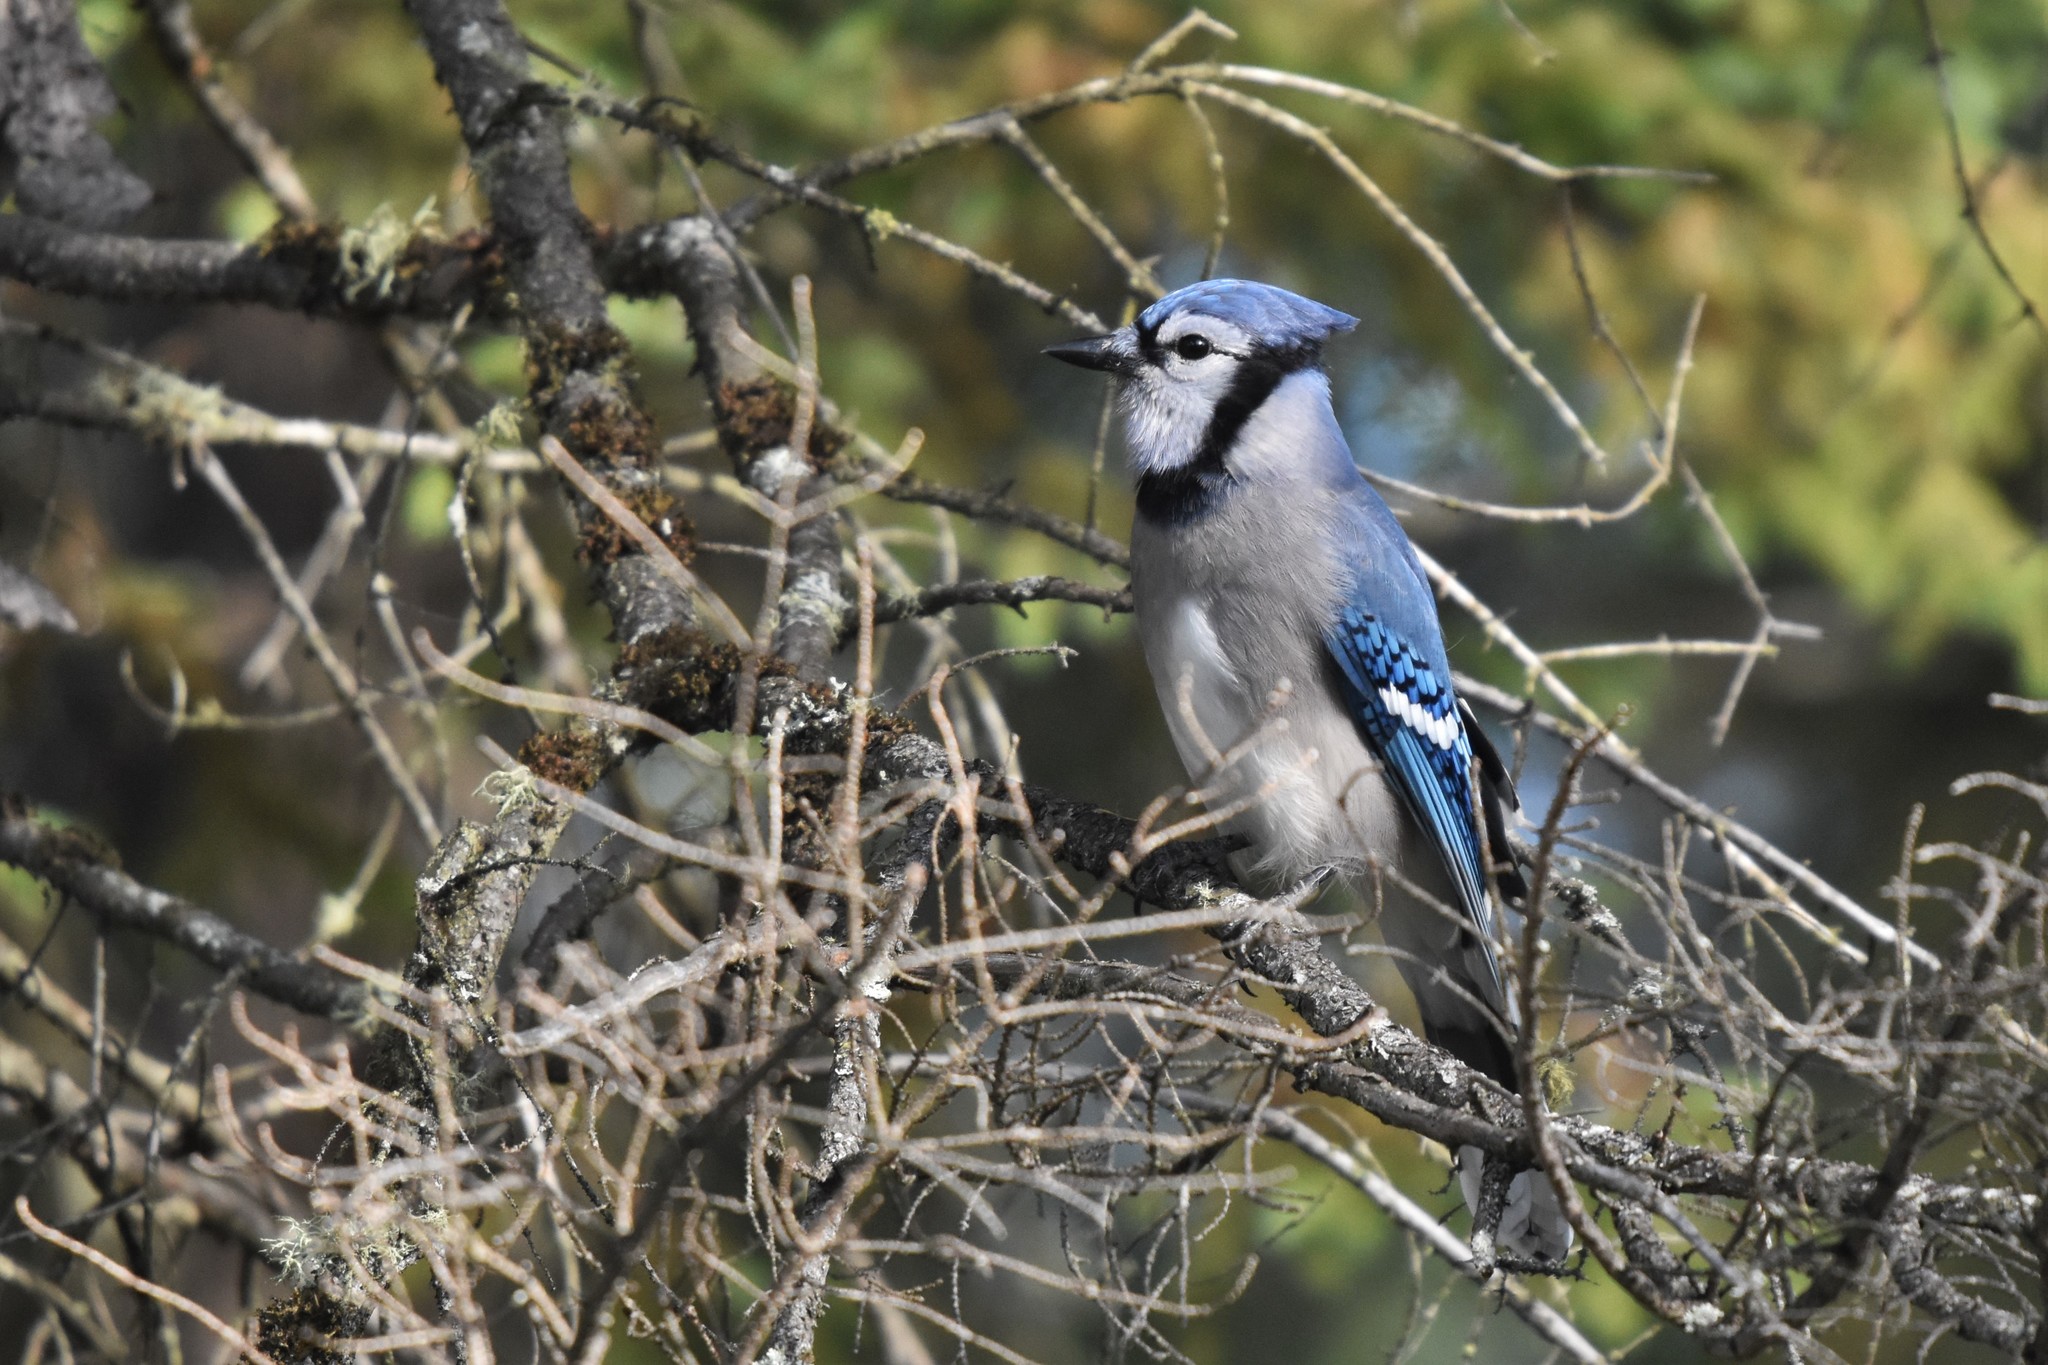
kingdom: Animalia
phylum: Chordata
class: Aves
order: Passeriformes
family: Corvidae
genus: Cyanocitta
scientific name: Cyanocitta cristata
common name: Blue jay
